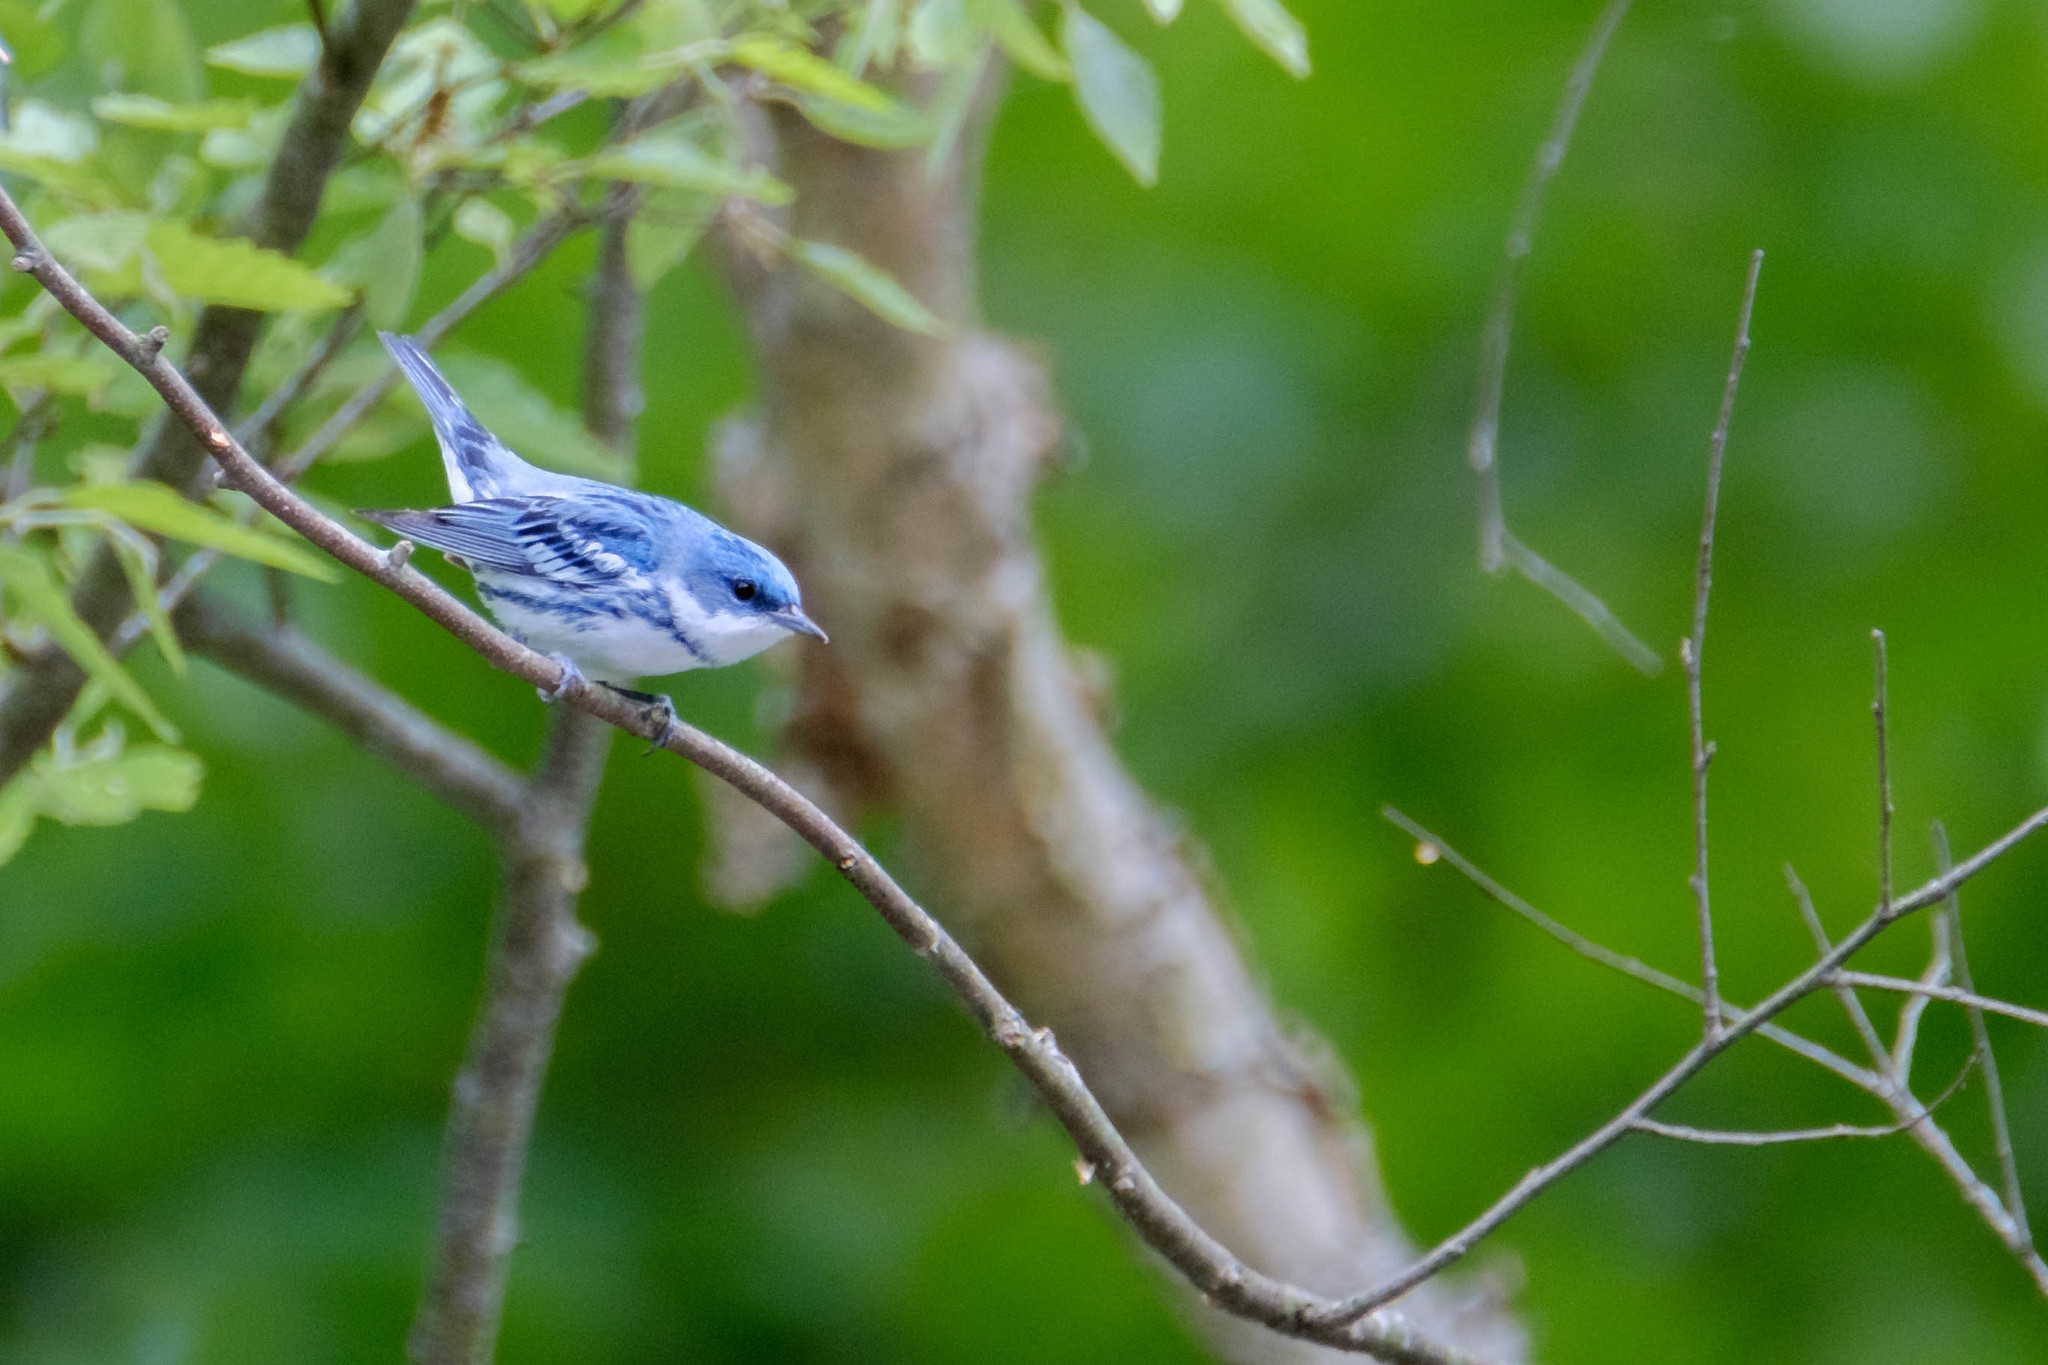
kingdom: Animalia
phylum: Chordata
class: Aves
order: Passeriformes
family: Parulidae
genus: Setophaga
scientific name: Setophaga cerulea
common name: Cerulean warbler
